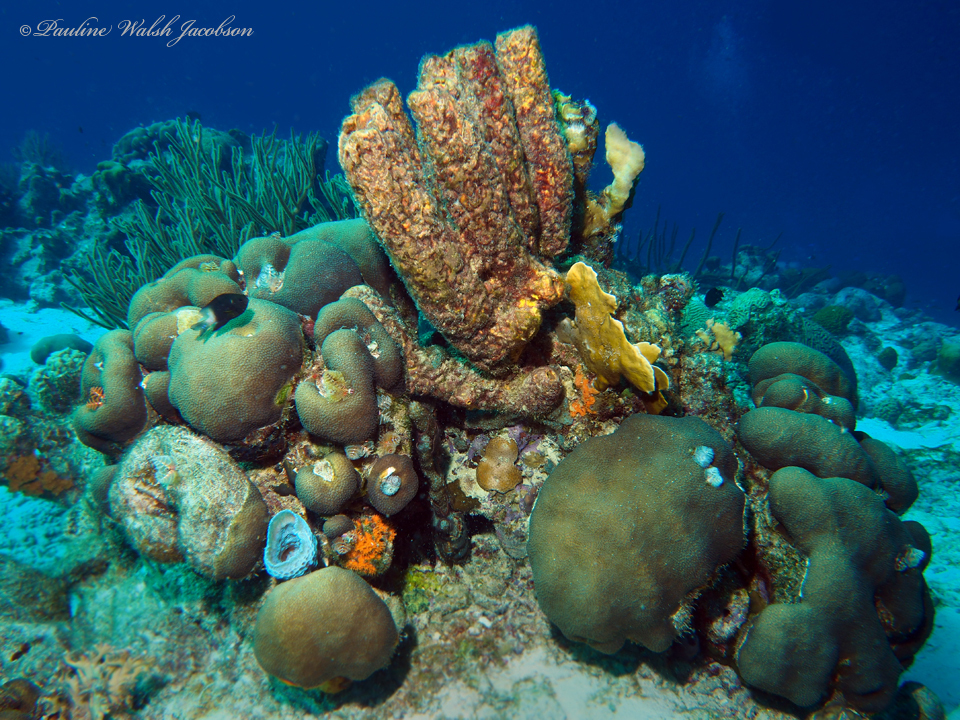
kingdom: Animalia
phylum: Chordata
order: Perciformes
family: Pomacentridae
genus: Stegastes
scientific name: Stegastes partitus
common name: Bicolor damselfish
